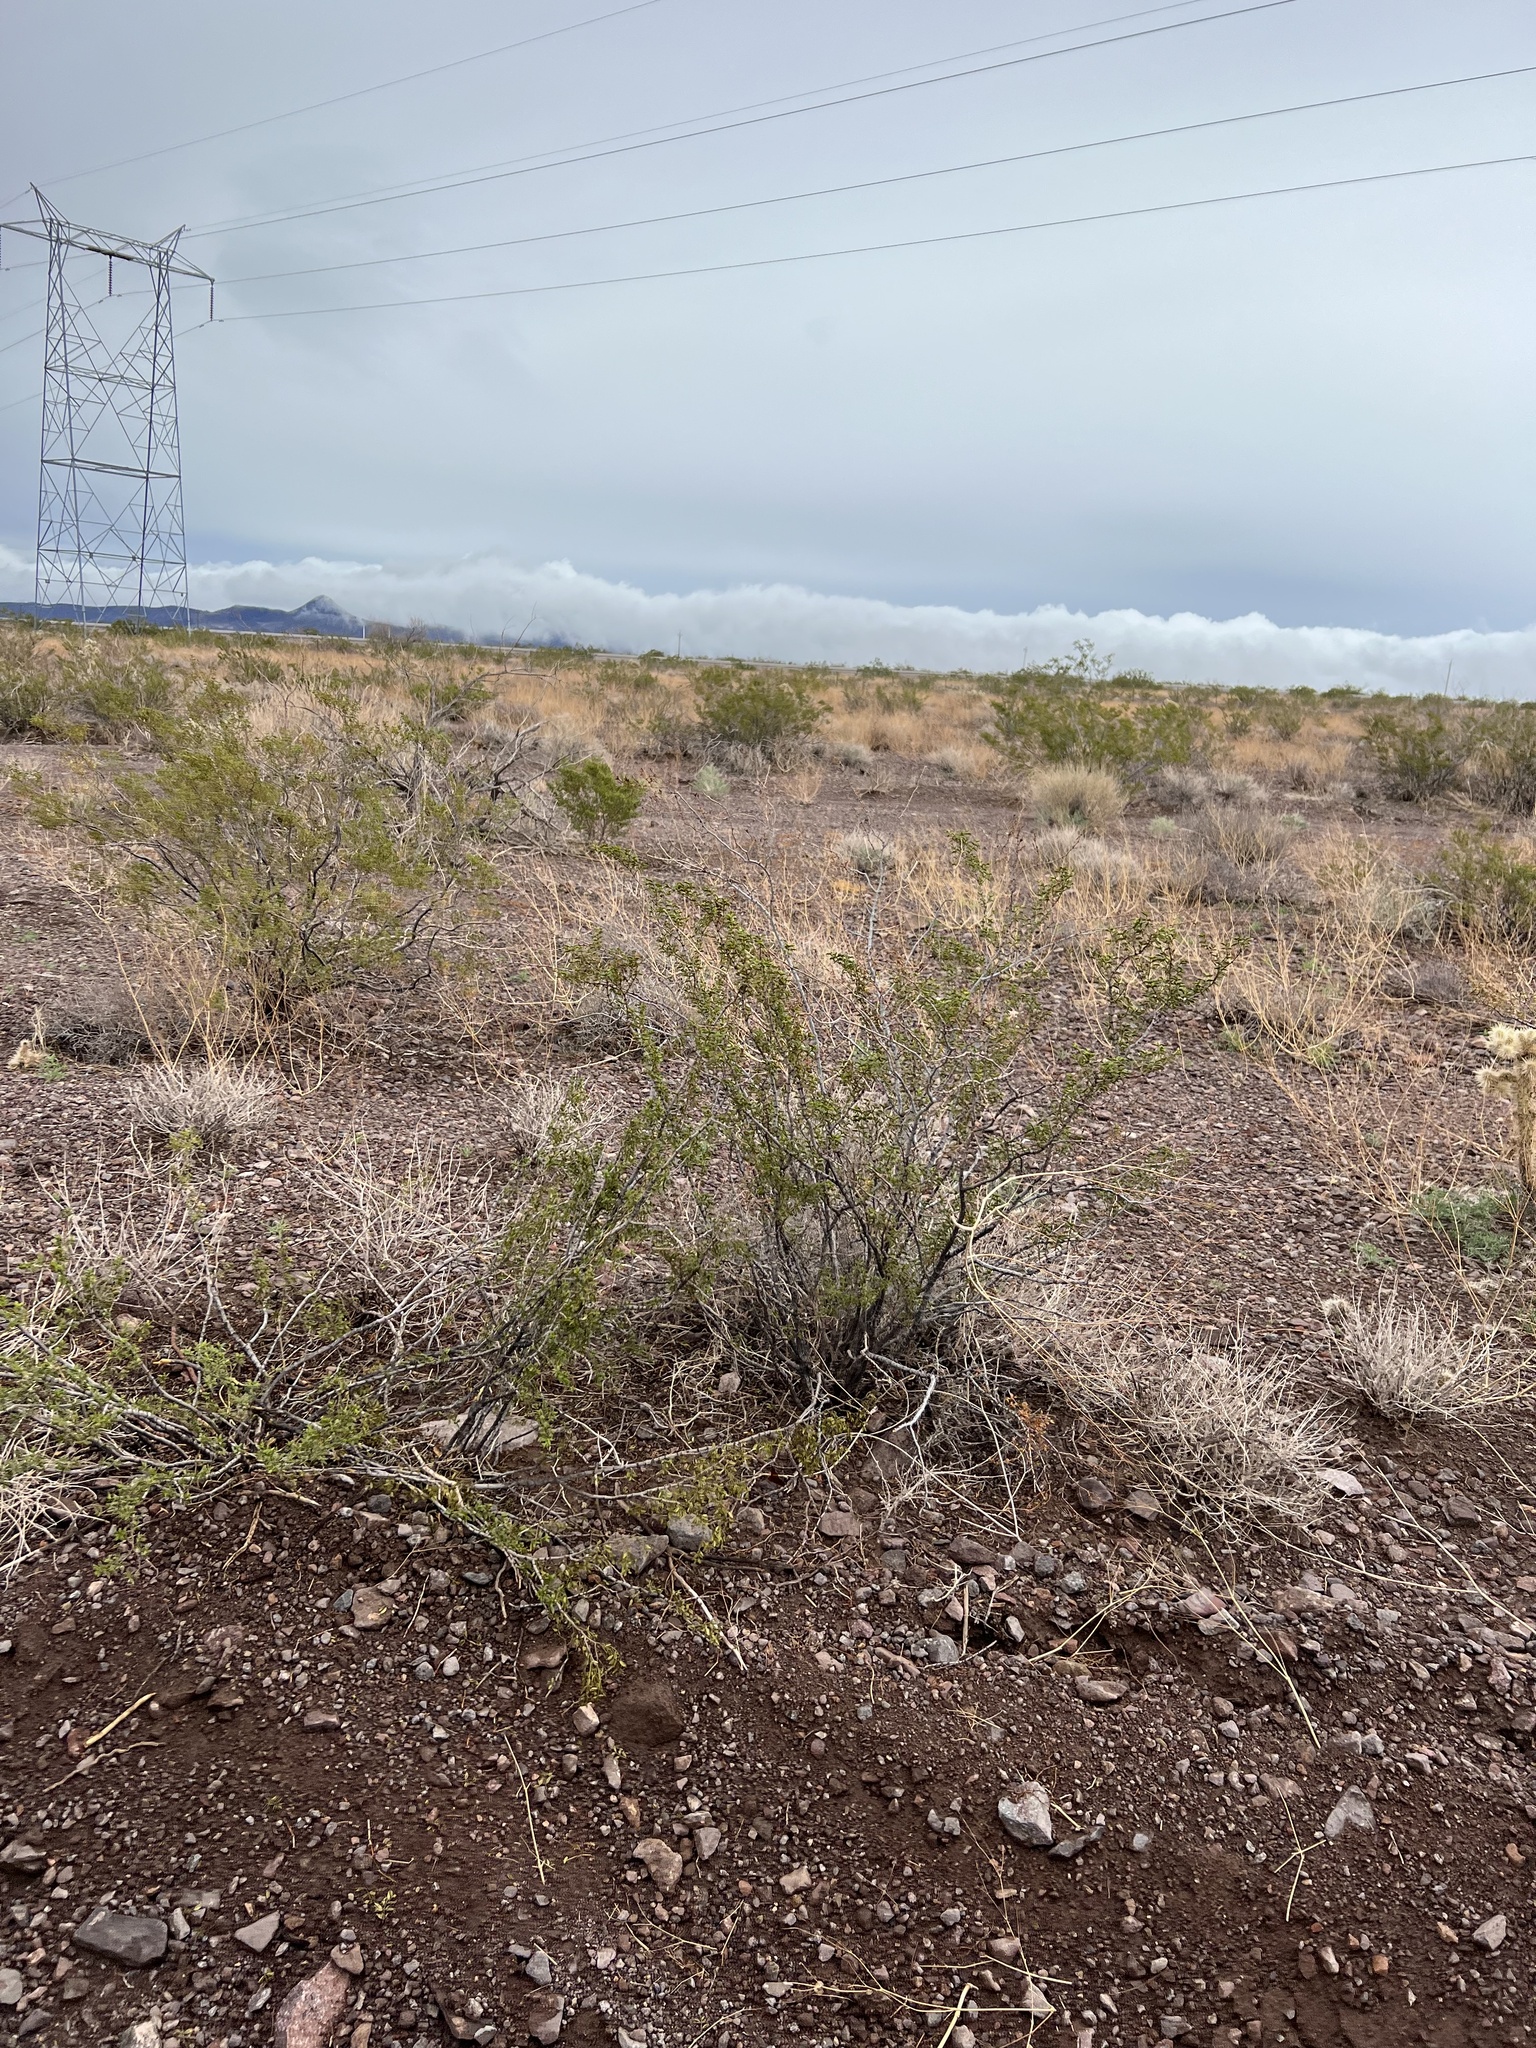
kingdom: Plantae
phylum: Tracheophyta
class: Magnoliopsida
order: Zygophyllales
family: Zygophyllaceae
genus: Larrea
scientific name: Larrea tridentata
